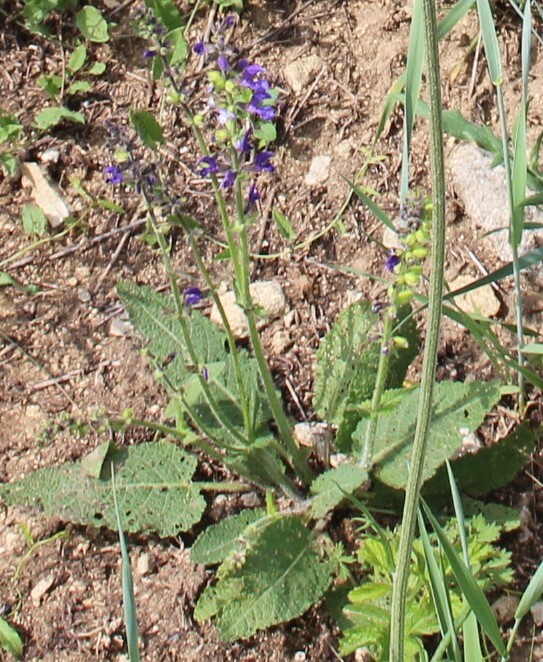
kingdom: Plantae
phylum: Tracheophyta
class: Magnoliopsida
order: Lamiales
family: Lamiaceae
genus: Salvia
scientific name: Salvia pratensis
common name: Meadow sage
